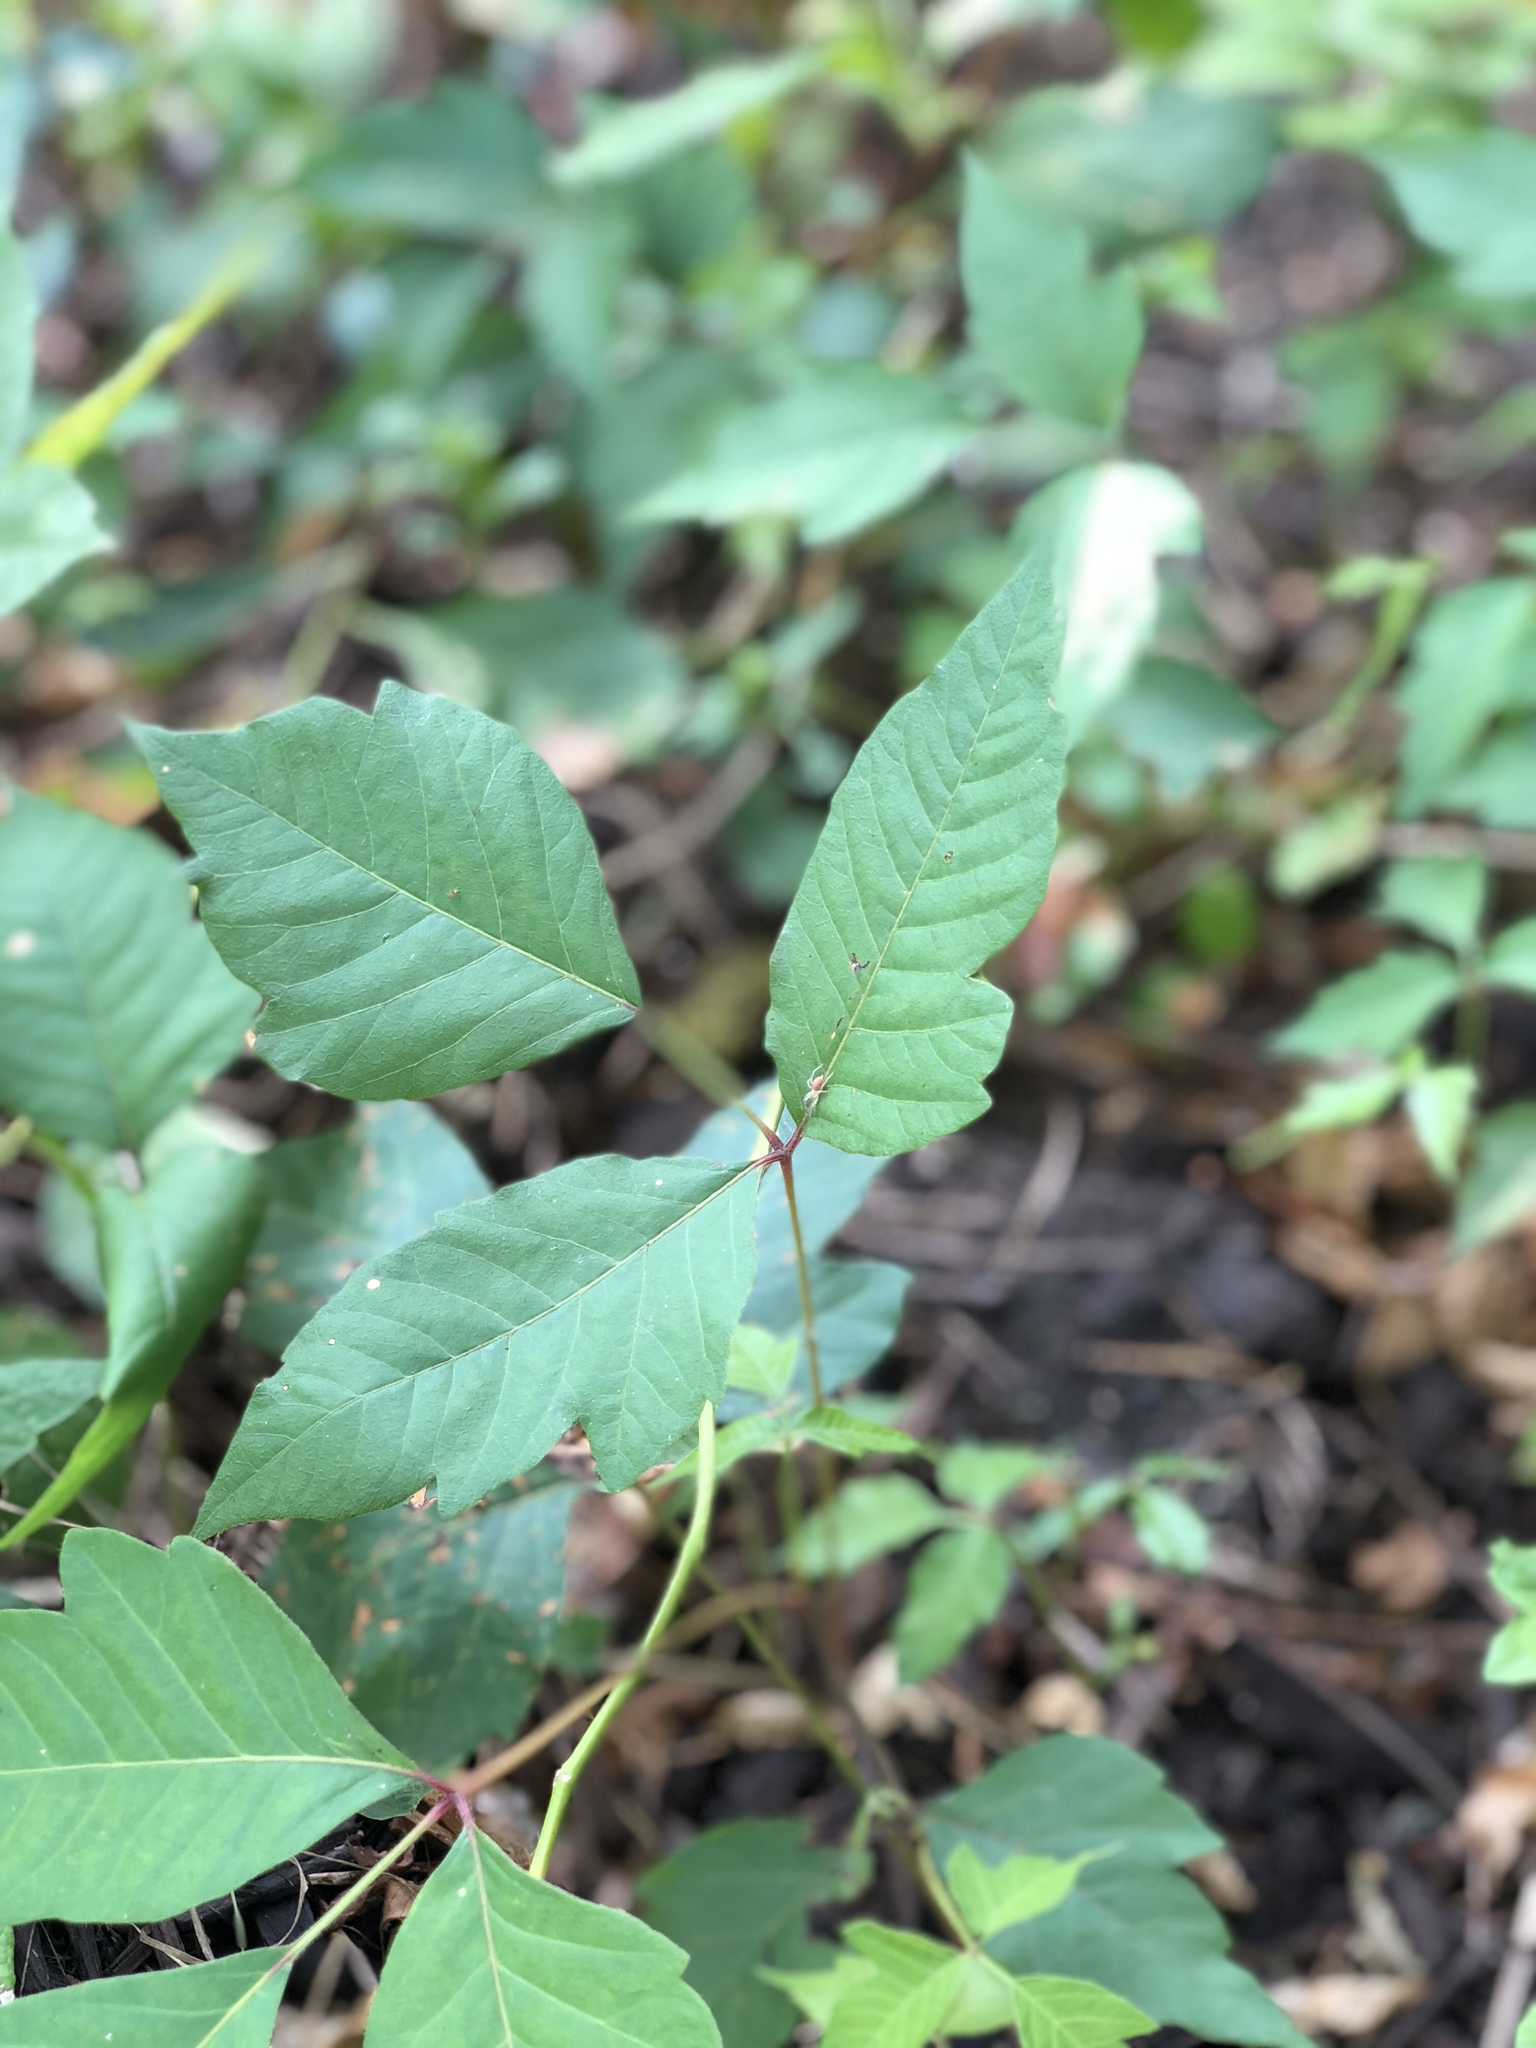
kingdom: Plantae
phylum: Tracheophyta
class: Magnoliopsida
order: Sapindales
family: Anacardiaceae
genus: Toxicodendron
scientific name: Toxicodendron radicans
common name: Poison ivy
